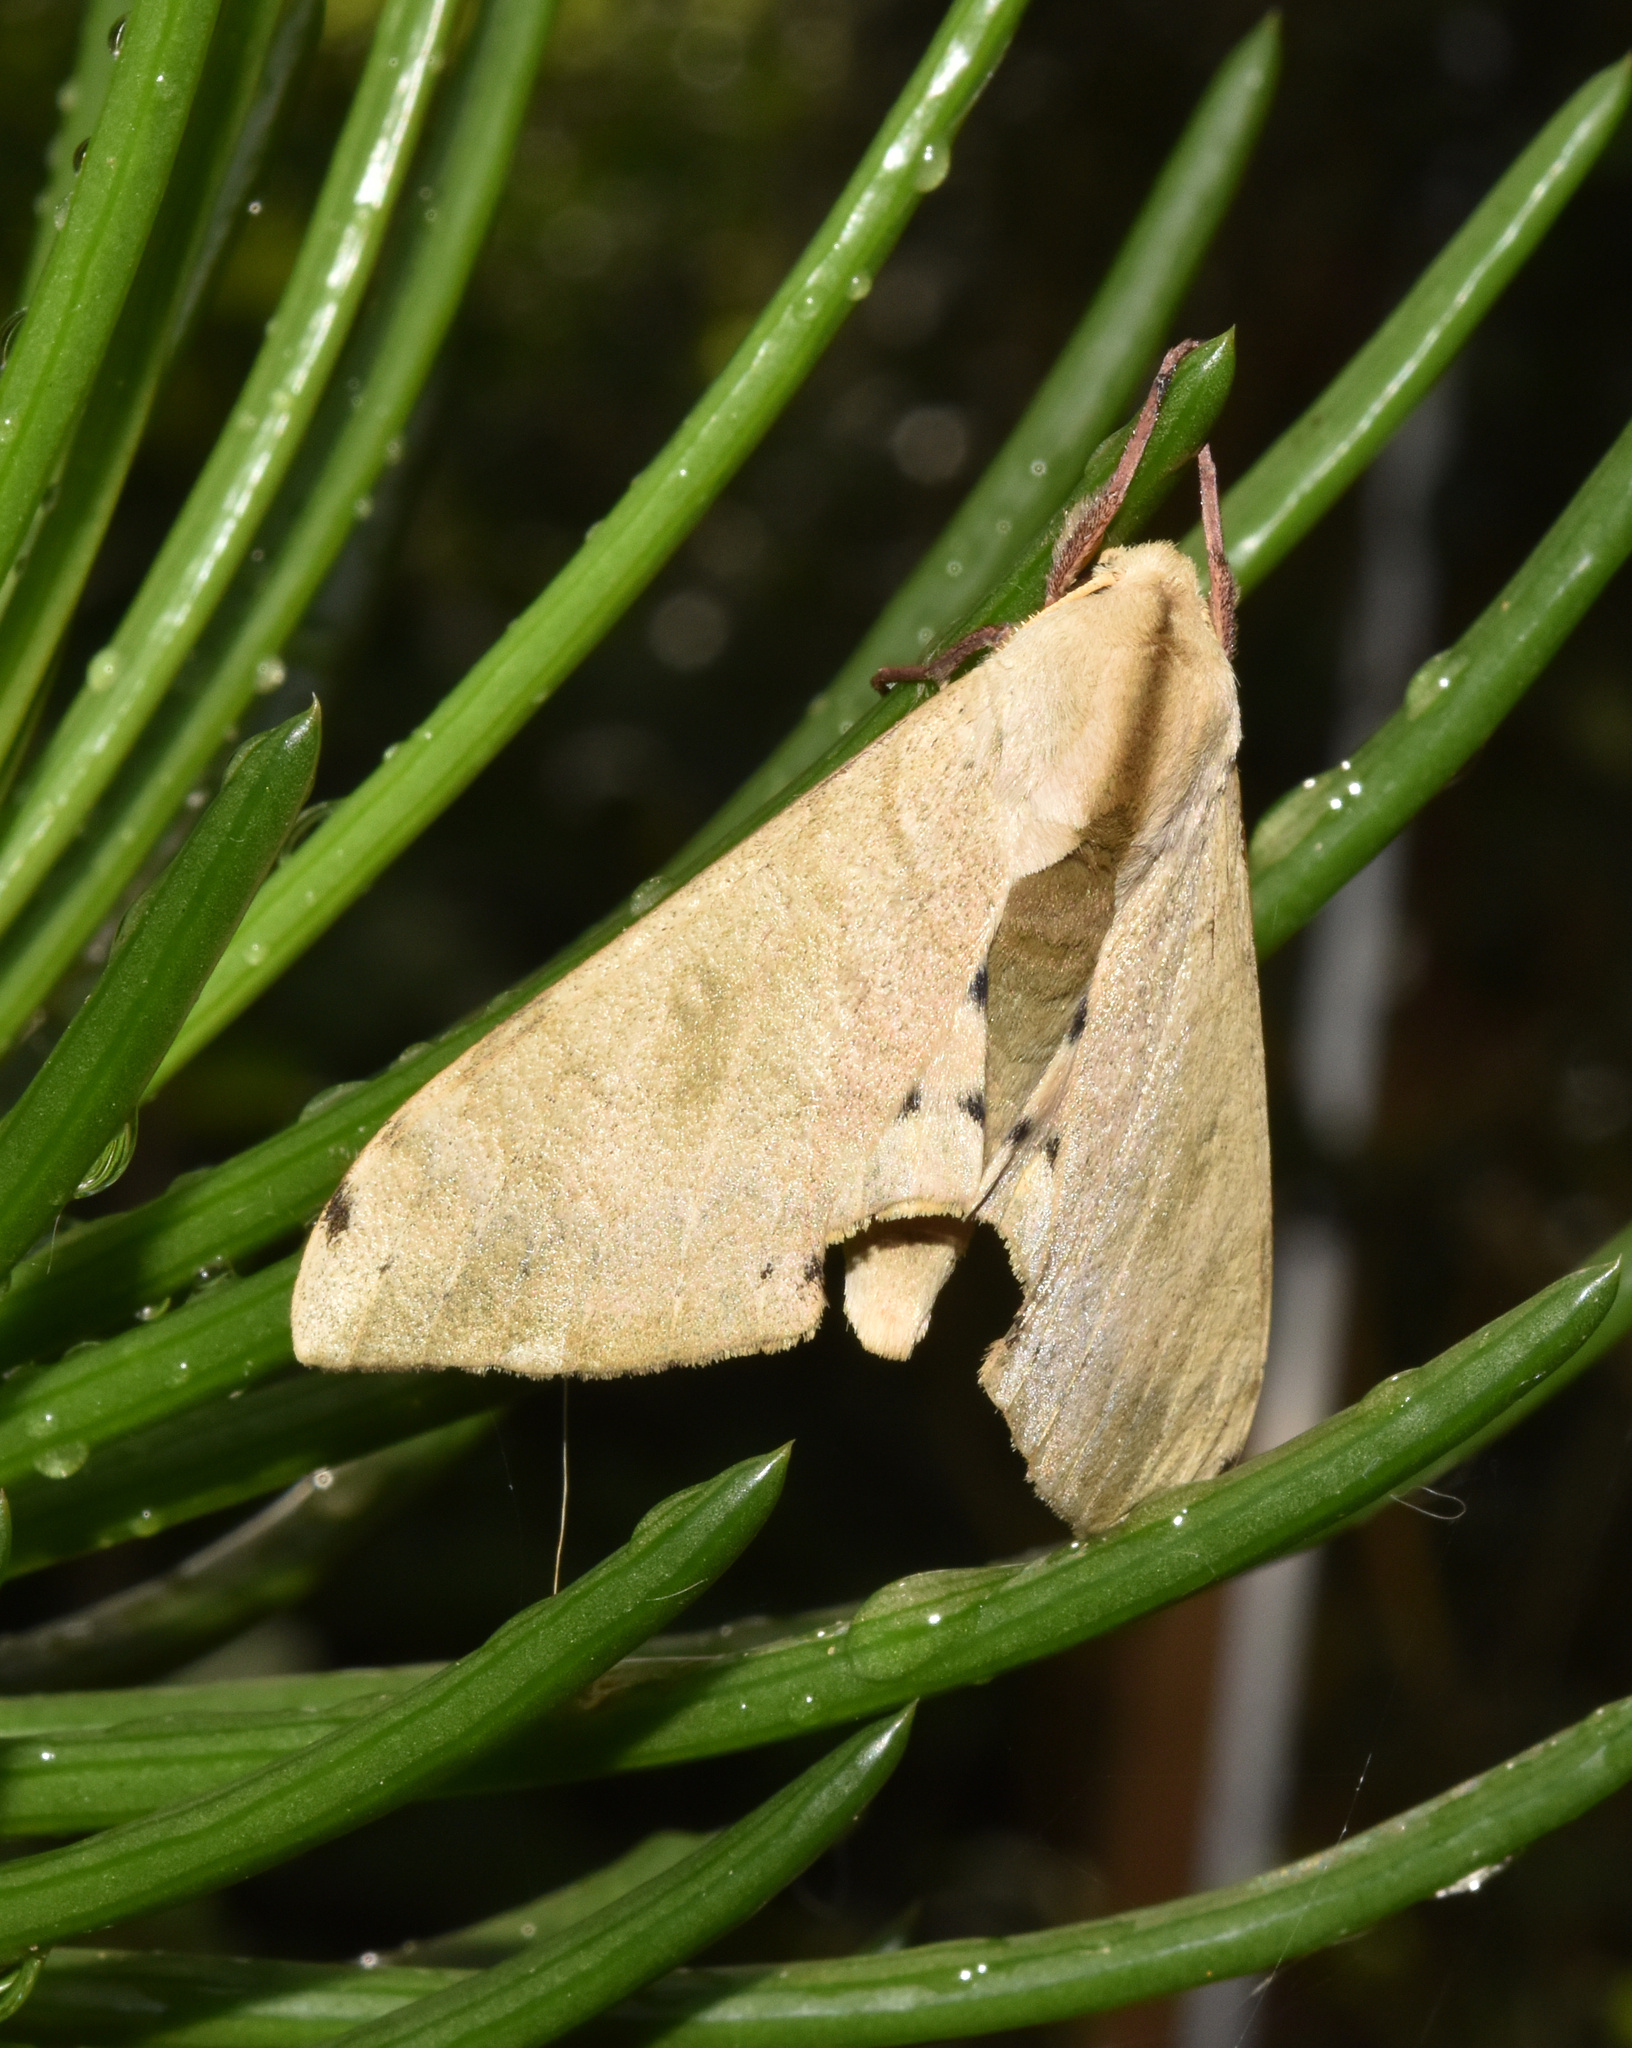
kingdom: Animalia
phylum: Arthropoda
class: Insecta
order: Lepidoptera
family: Sphingidae
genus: Pseudoclanis
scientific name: Pseudoclanis postica
